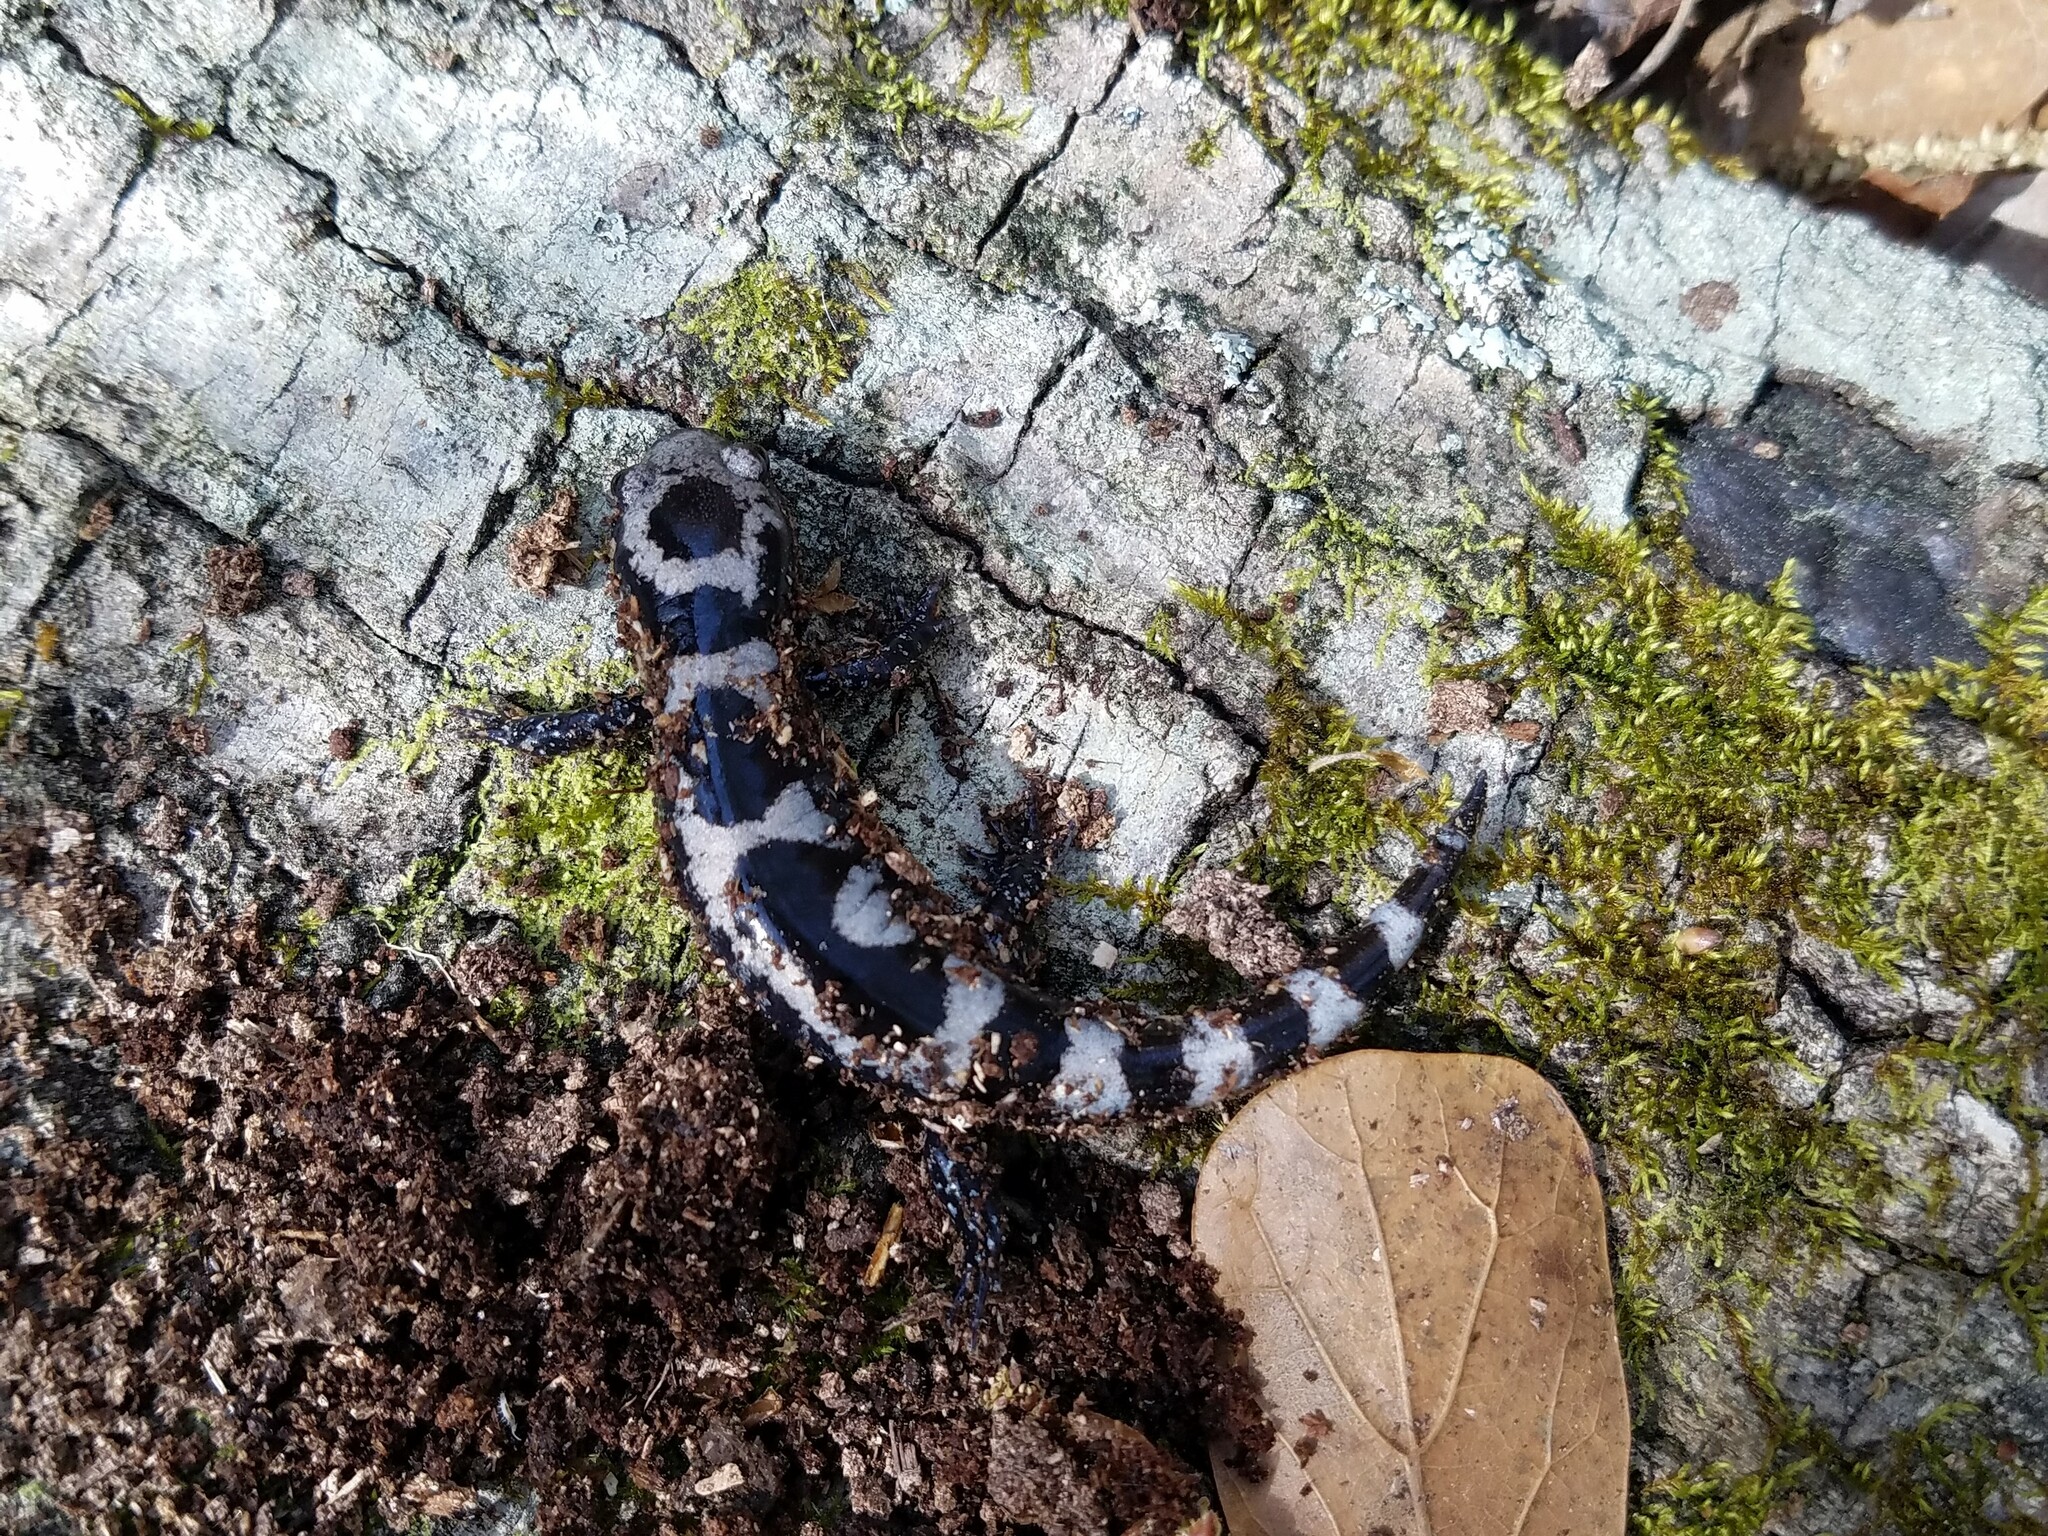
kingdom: Animalia
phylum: Chordata
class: Amphibia
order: Caudata
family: Ambystomatidae
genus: Ambystoma
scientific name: Ambystoma opacum
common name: Marbled salamander
